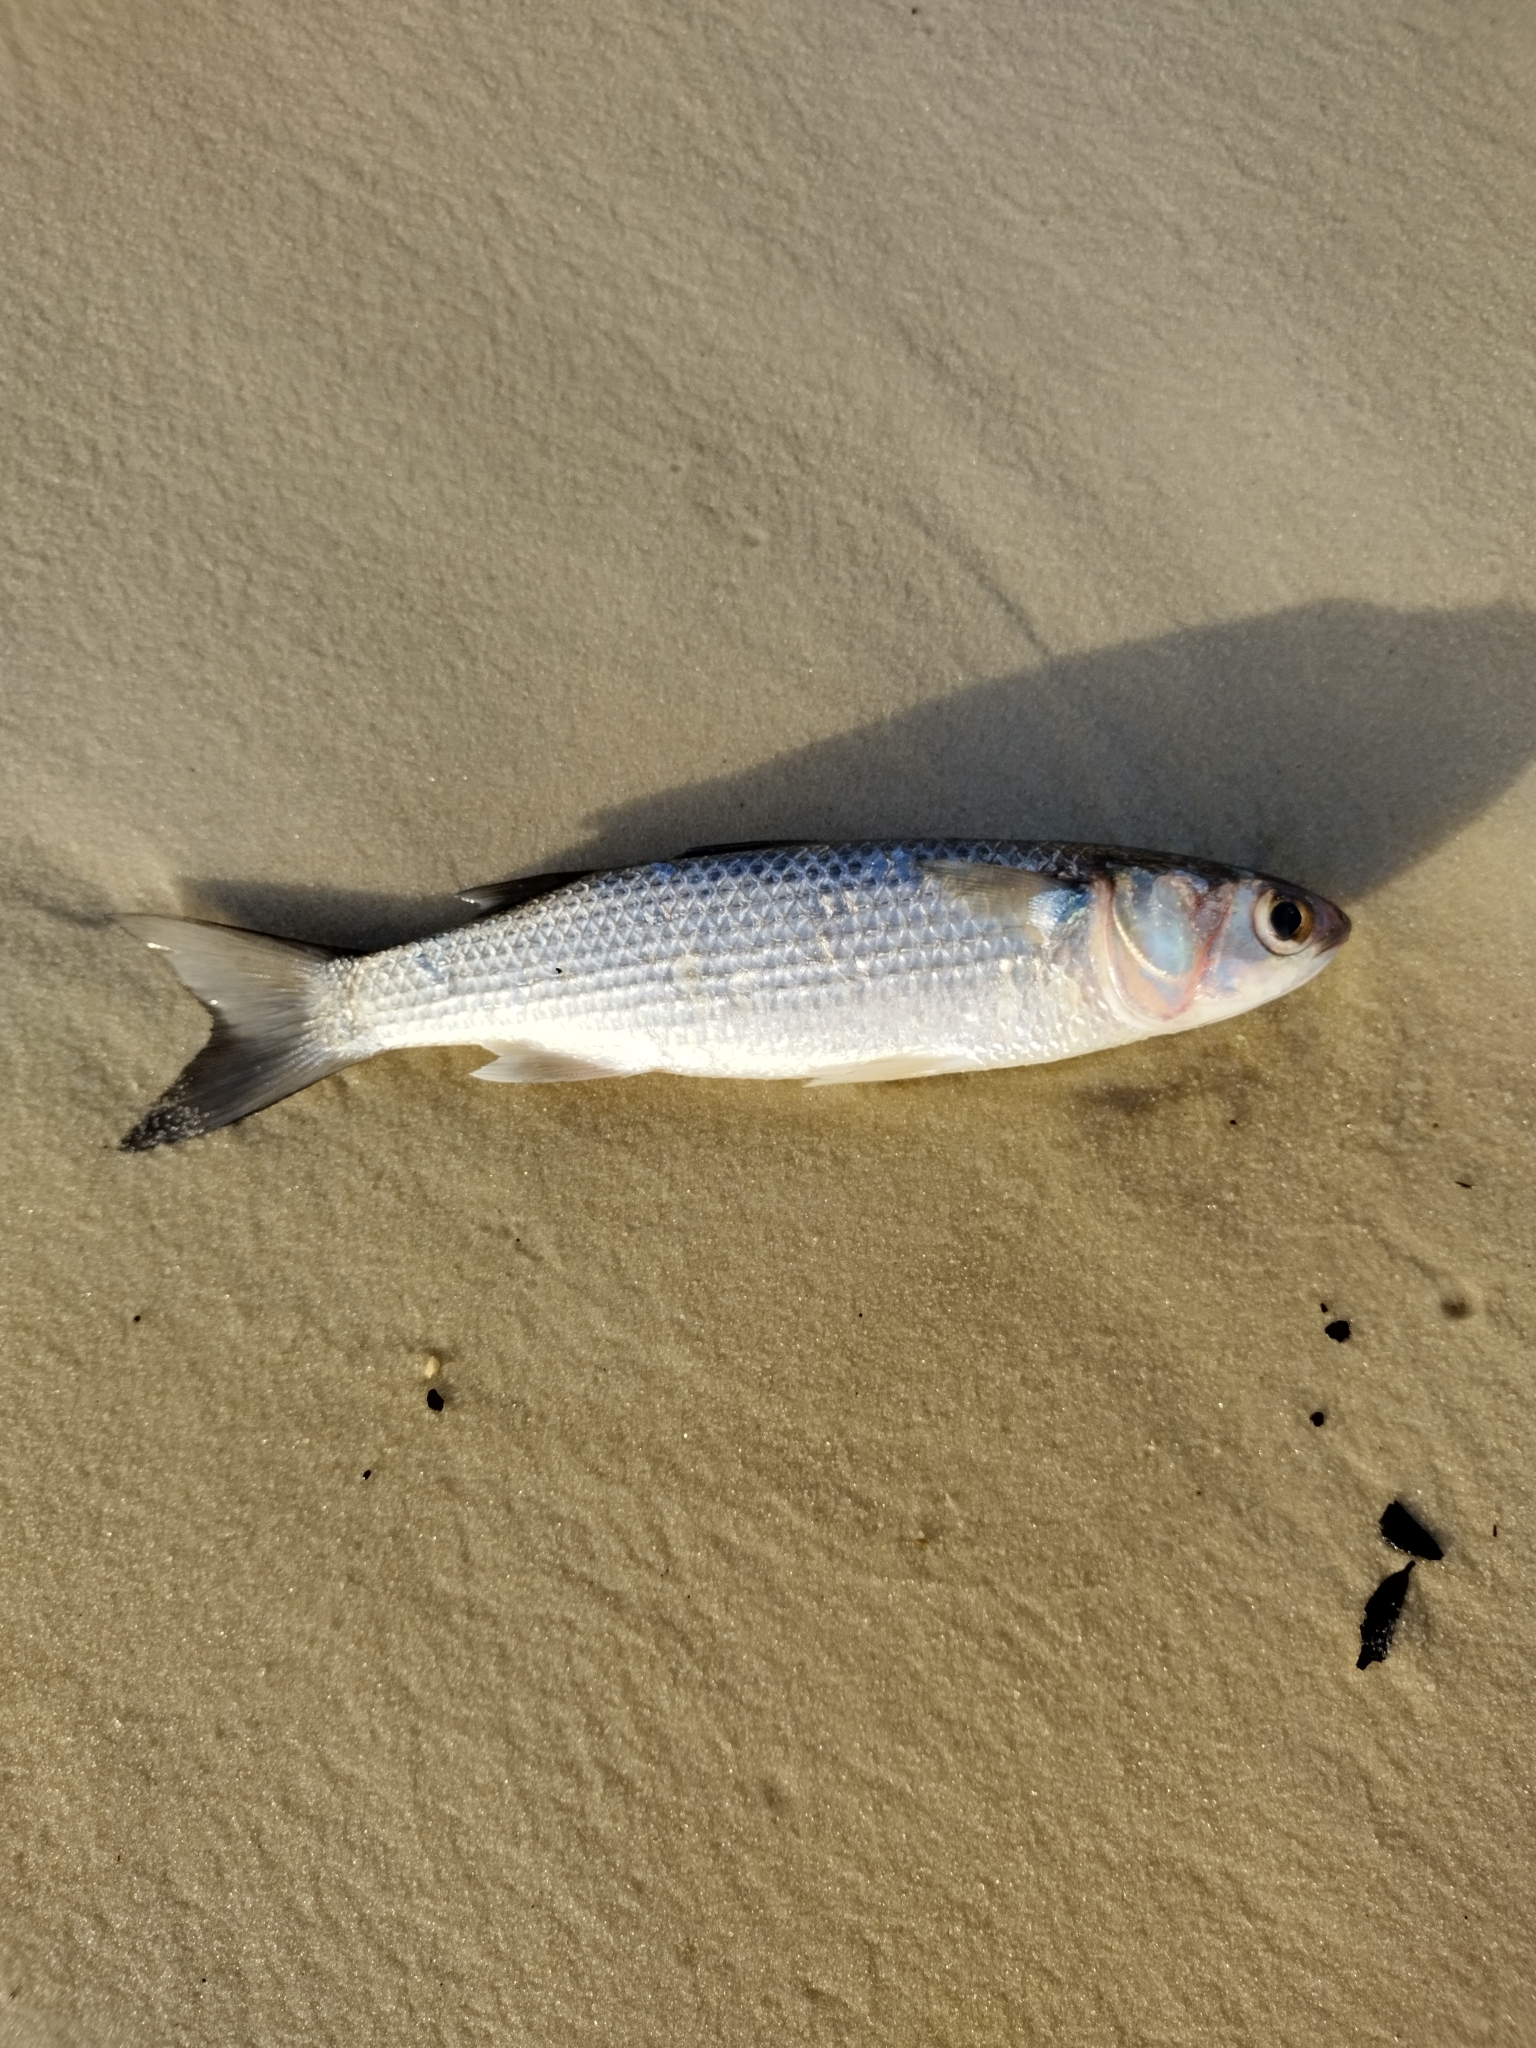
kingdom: Animalia
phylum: Chordata
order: Mugiliformes
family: Mugilidae
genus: Mugil
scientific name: Mugil cephalus
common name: Grey mullet
